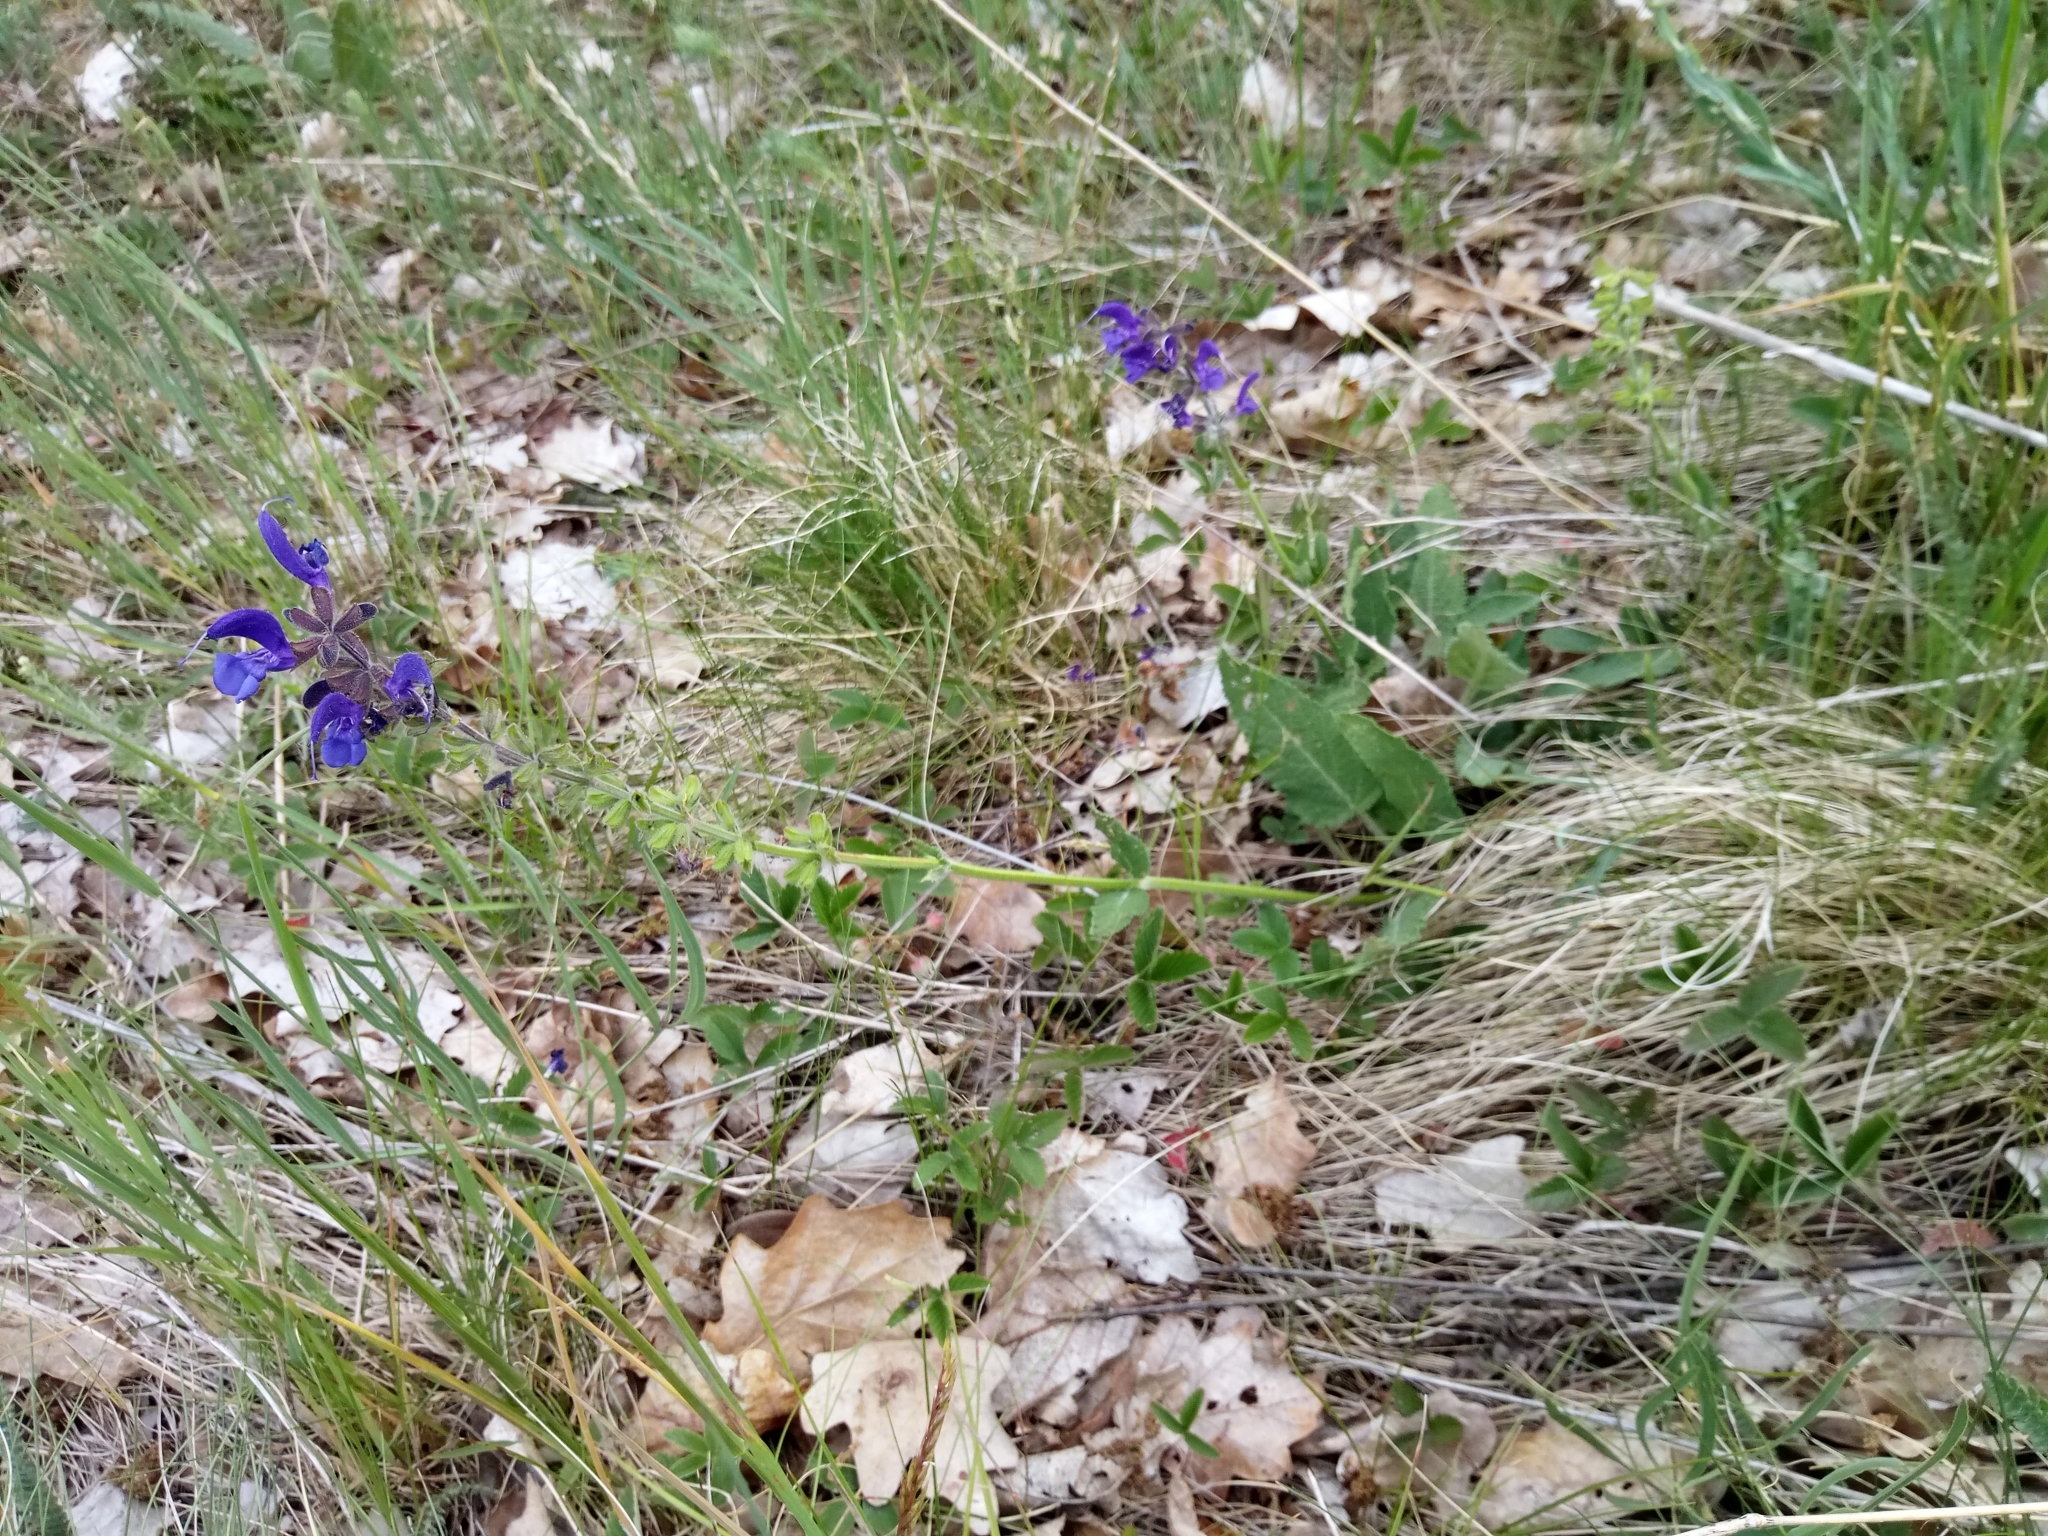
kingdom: Plantae
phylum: Tracheophyta
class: Magnoliopsida
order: Lamiales
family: Lamiaceae
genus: Salvia
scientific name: Salvia pratensis
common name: Meadow sage
